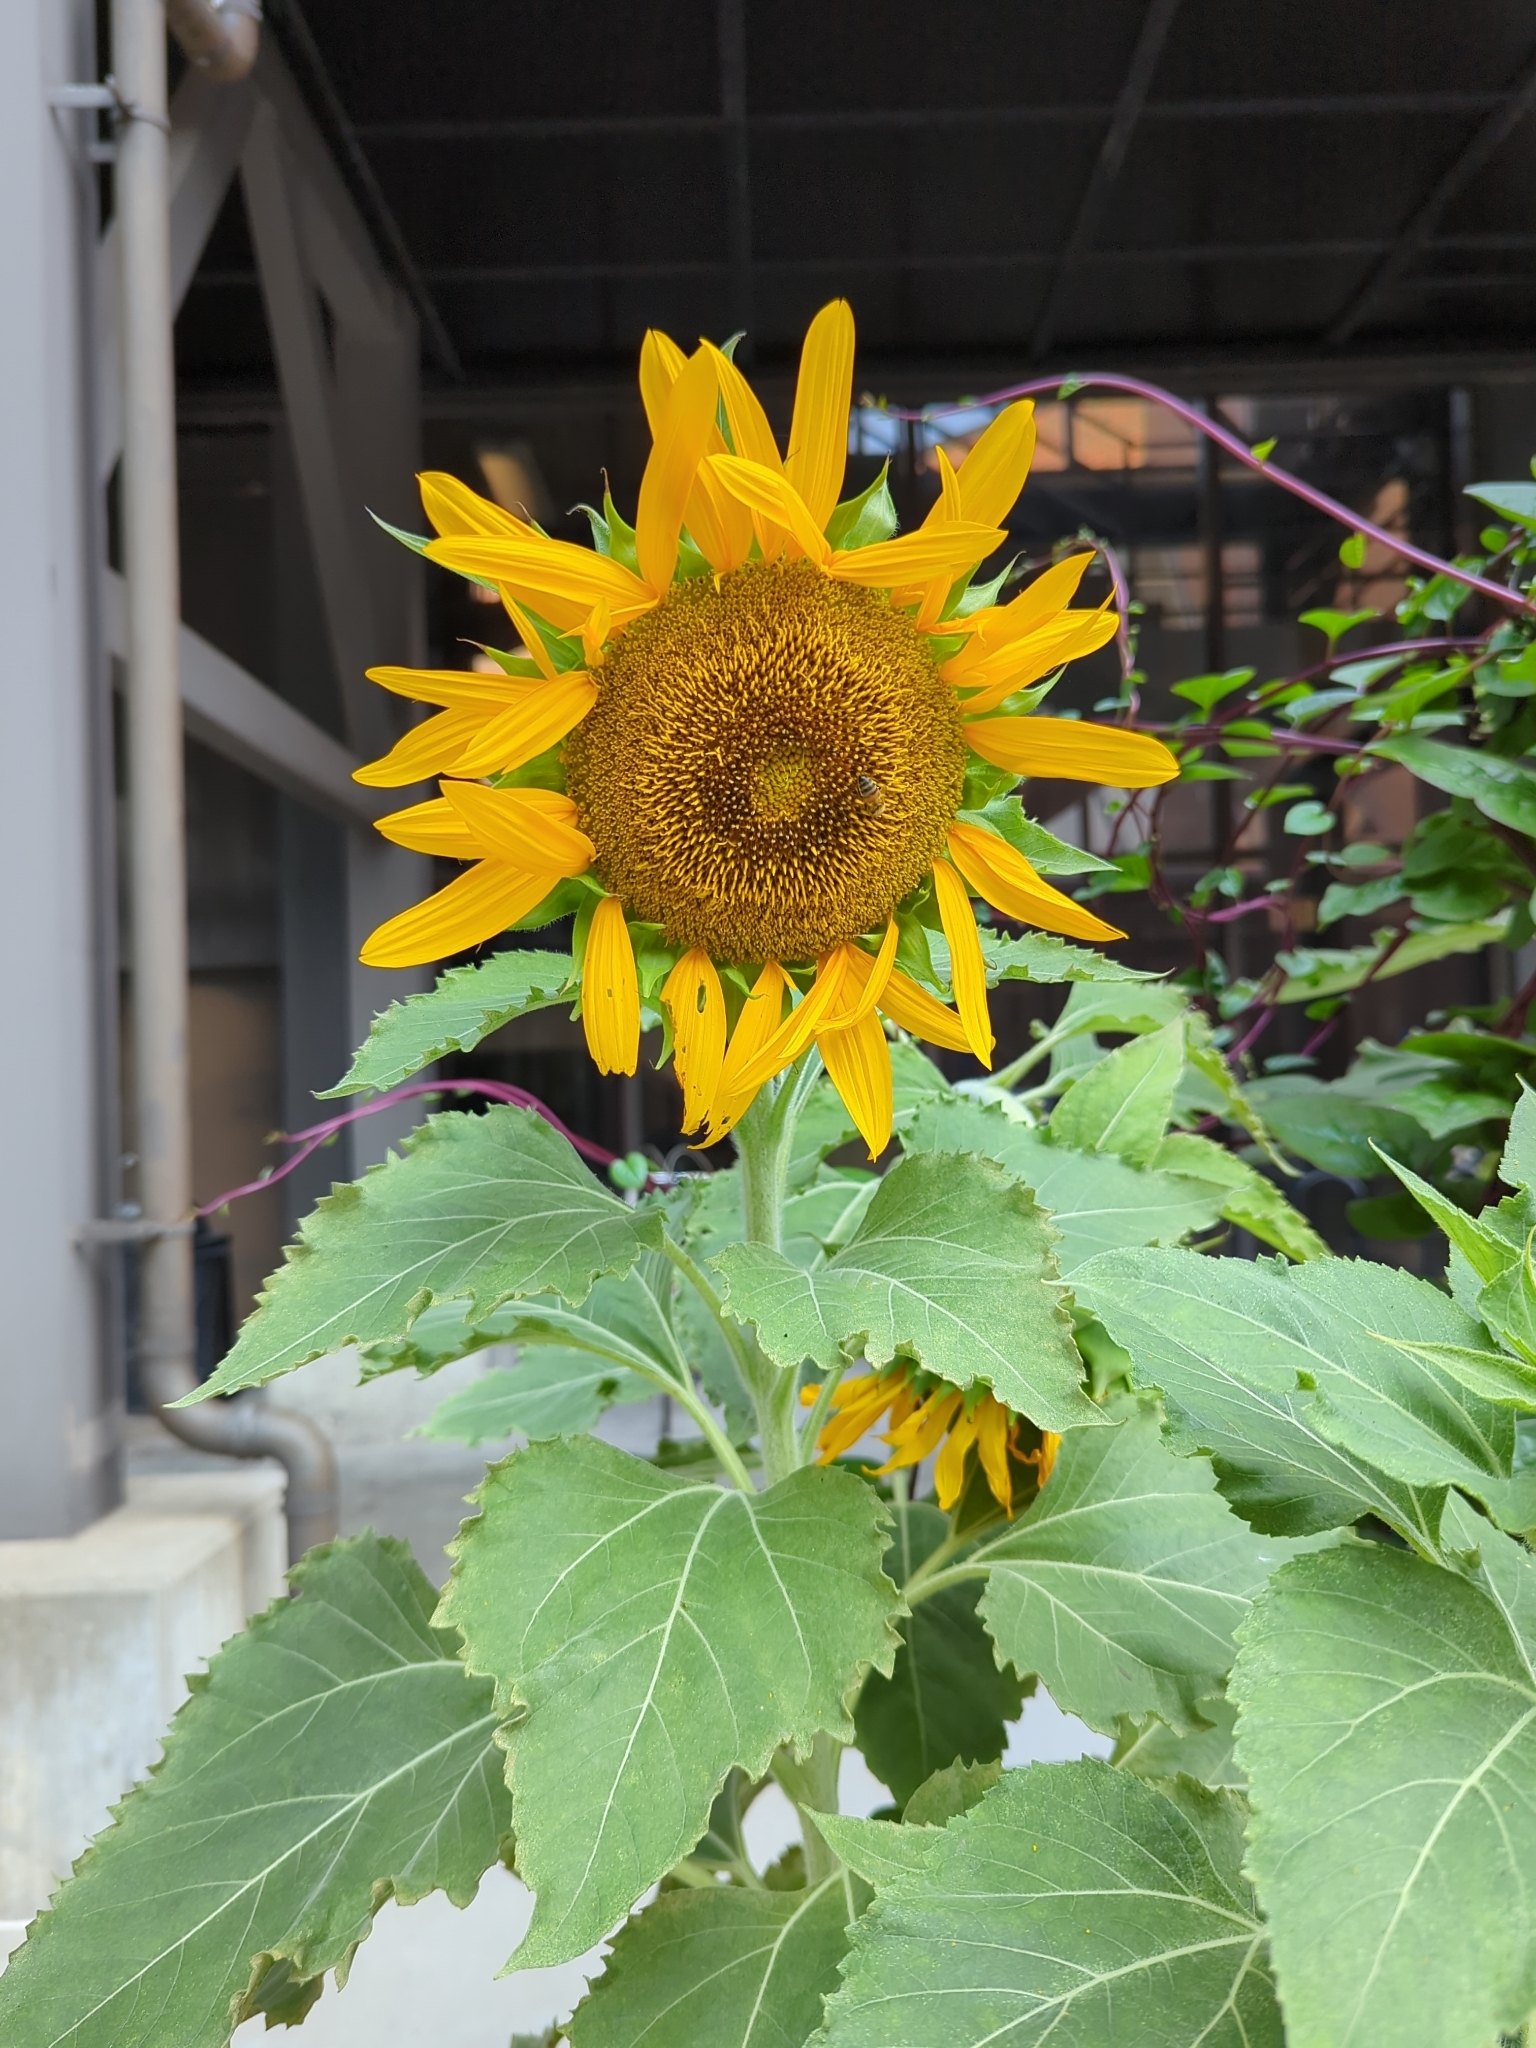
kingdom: Plantae
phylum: Tracheophyta
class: Magnoliopsida
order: Asterales
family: Asteraceae
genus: Helianthus
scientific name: Helianthus annuus
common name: Sunflower
